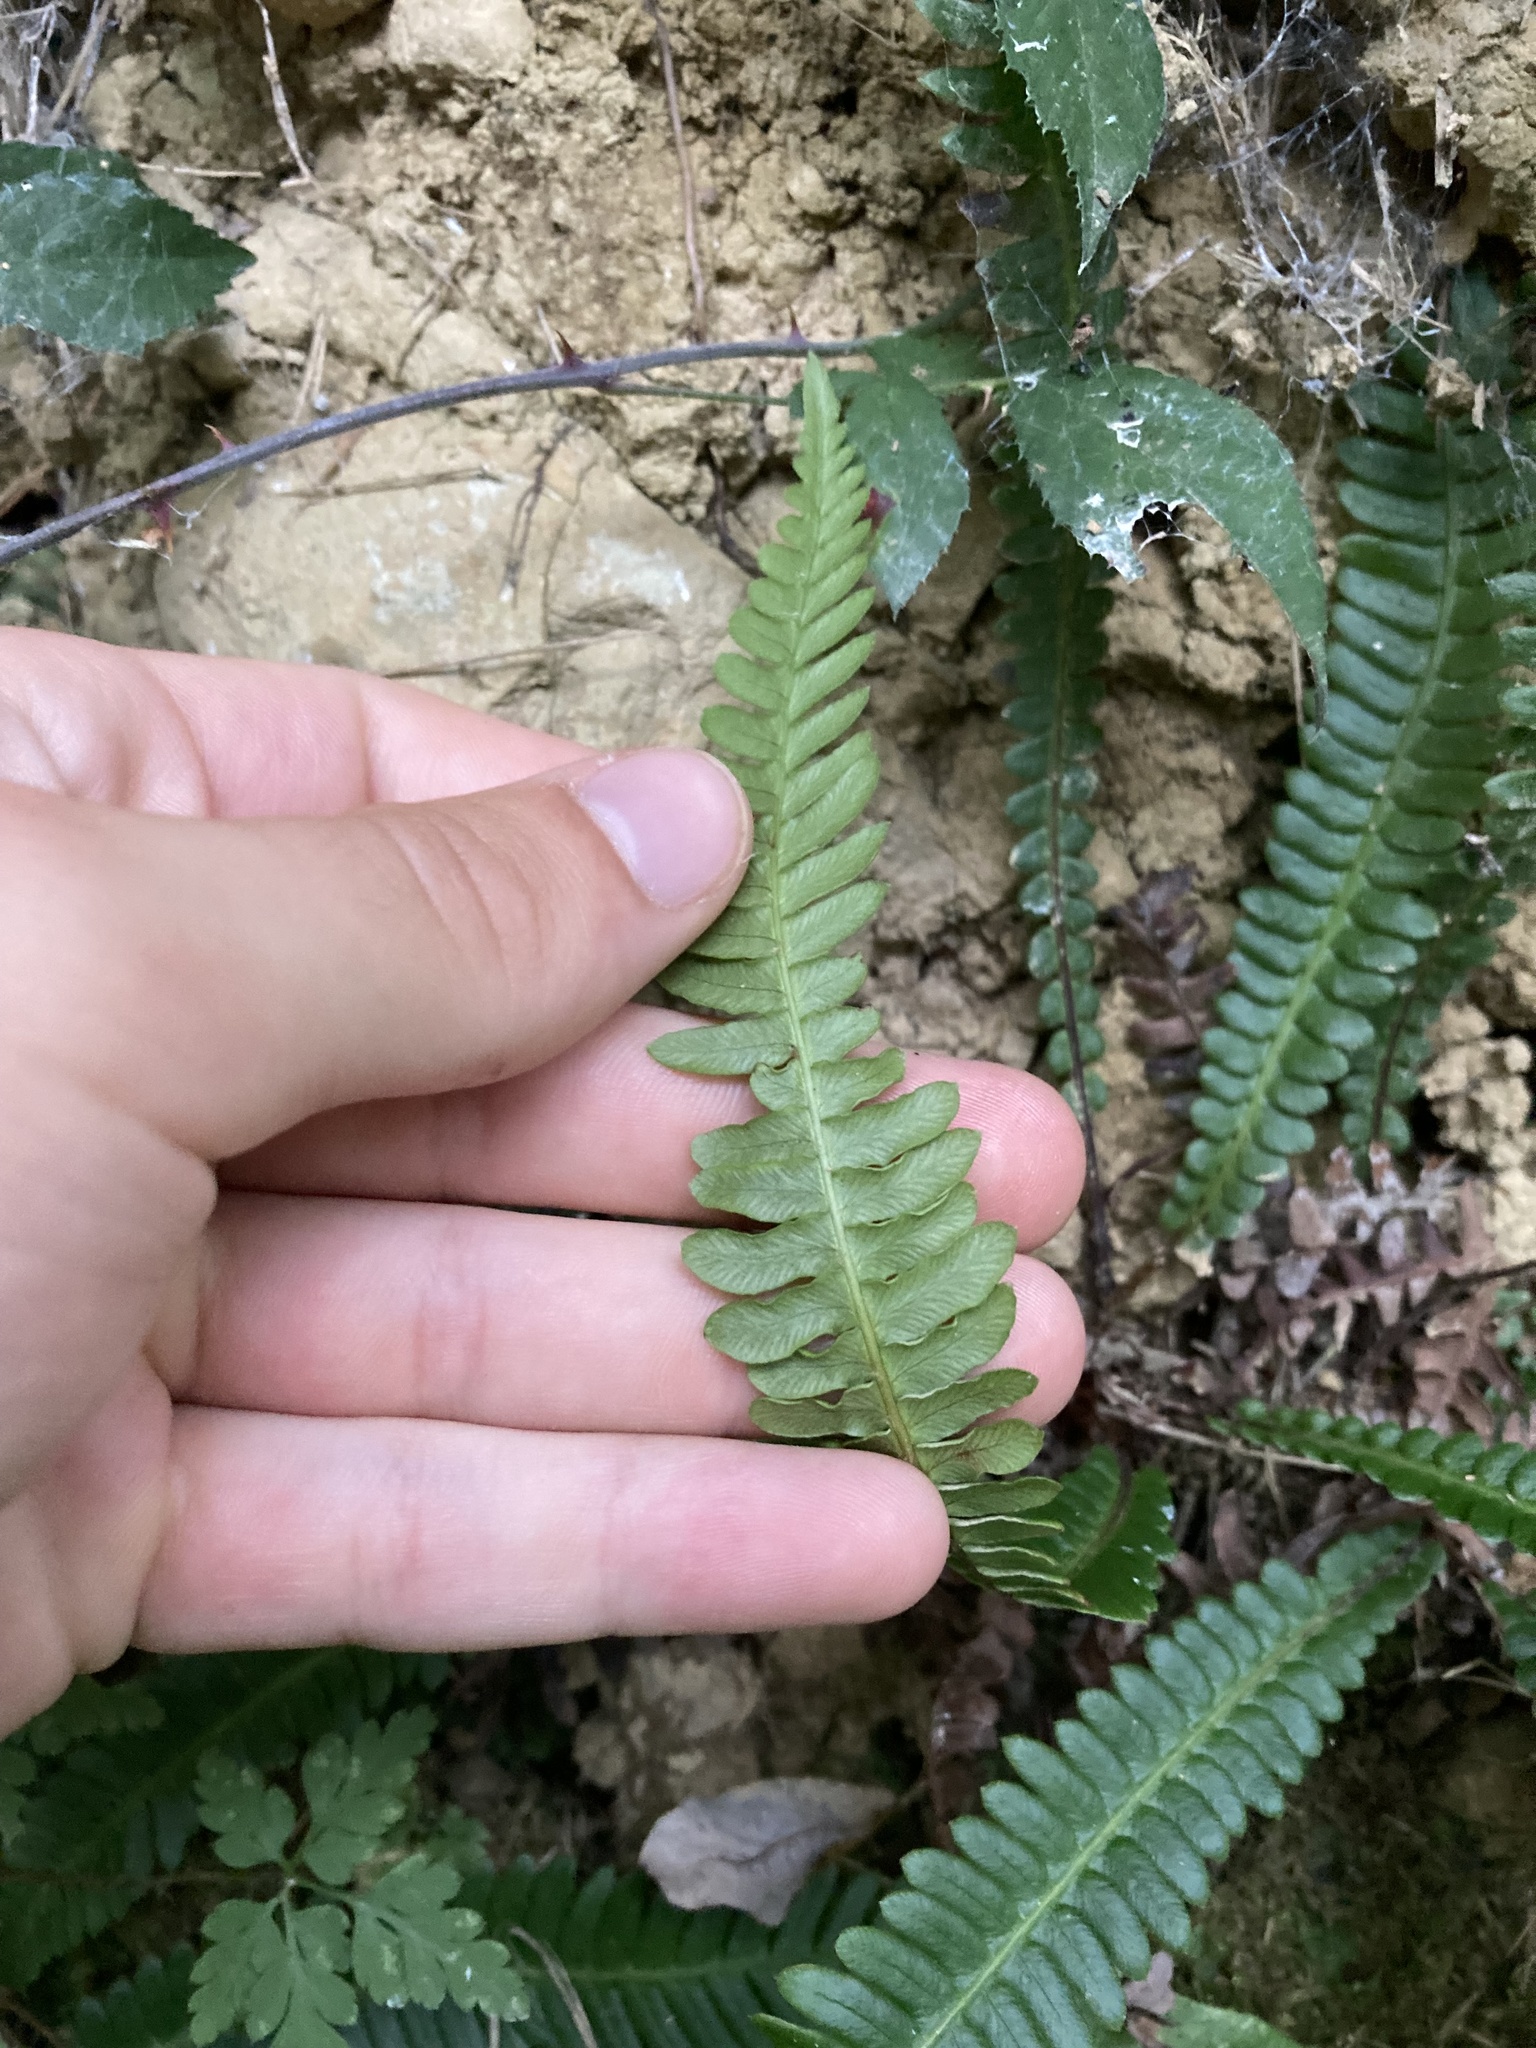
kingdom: Plantae
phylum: Tracheophyta
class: Polypodiopsida
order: Polypodiales
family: Blechnaceae
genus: Struthiopteris
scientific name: Struthiopteris spicant
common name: Deer fern
